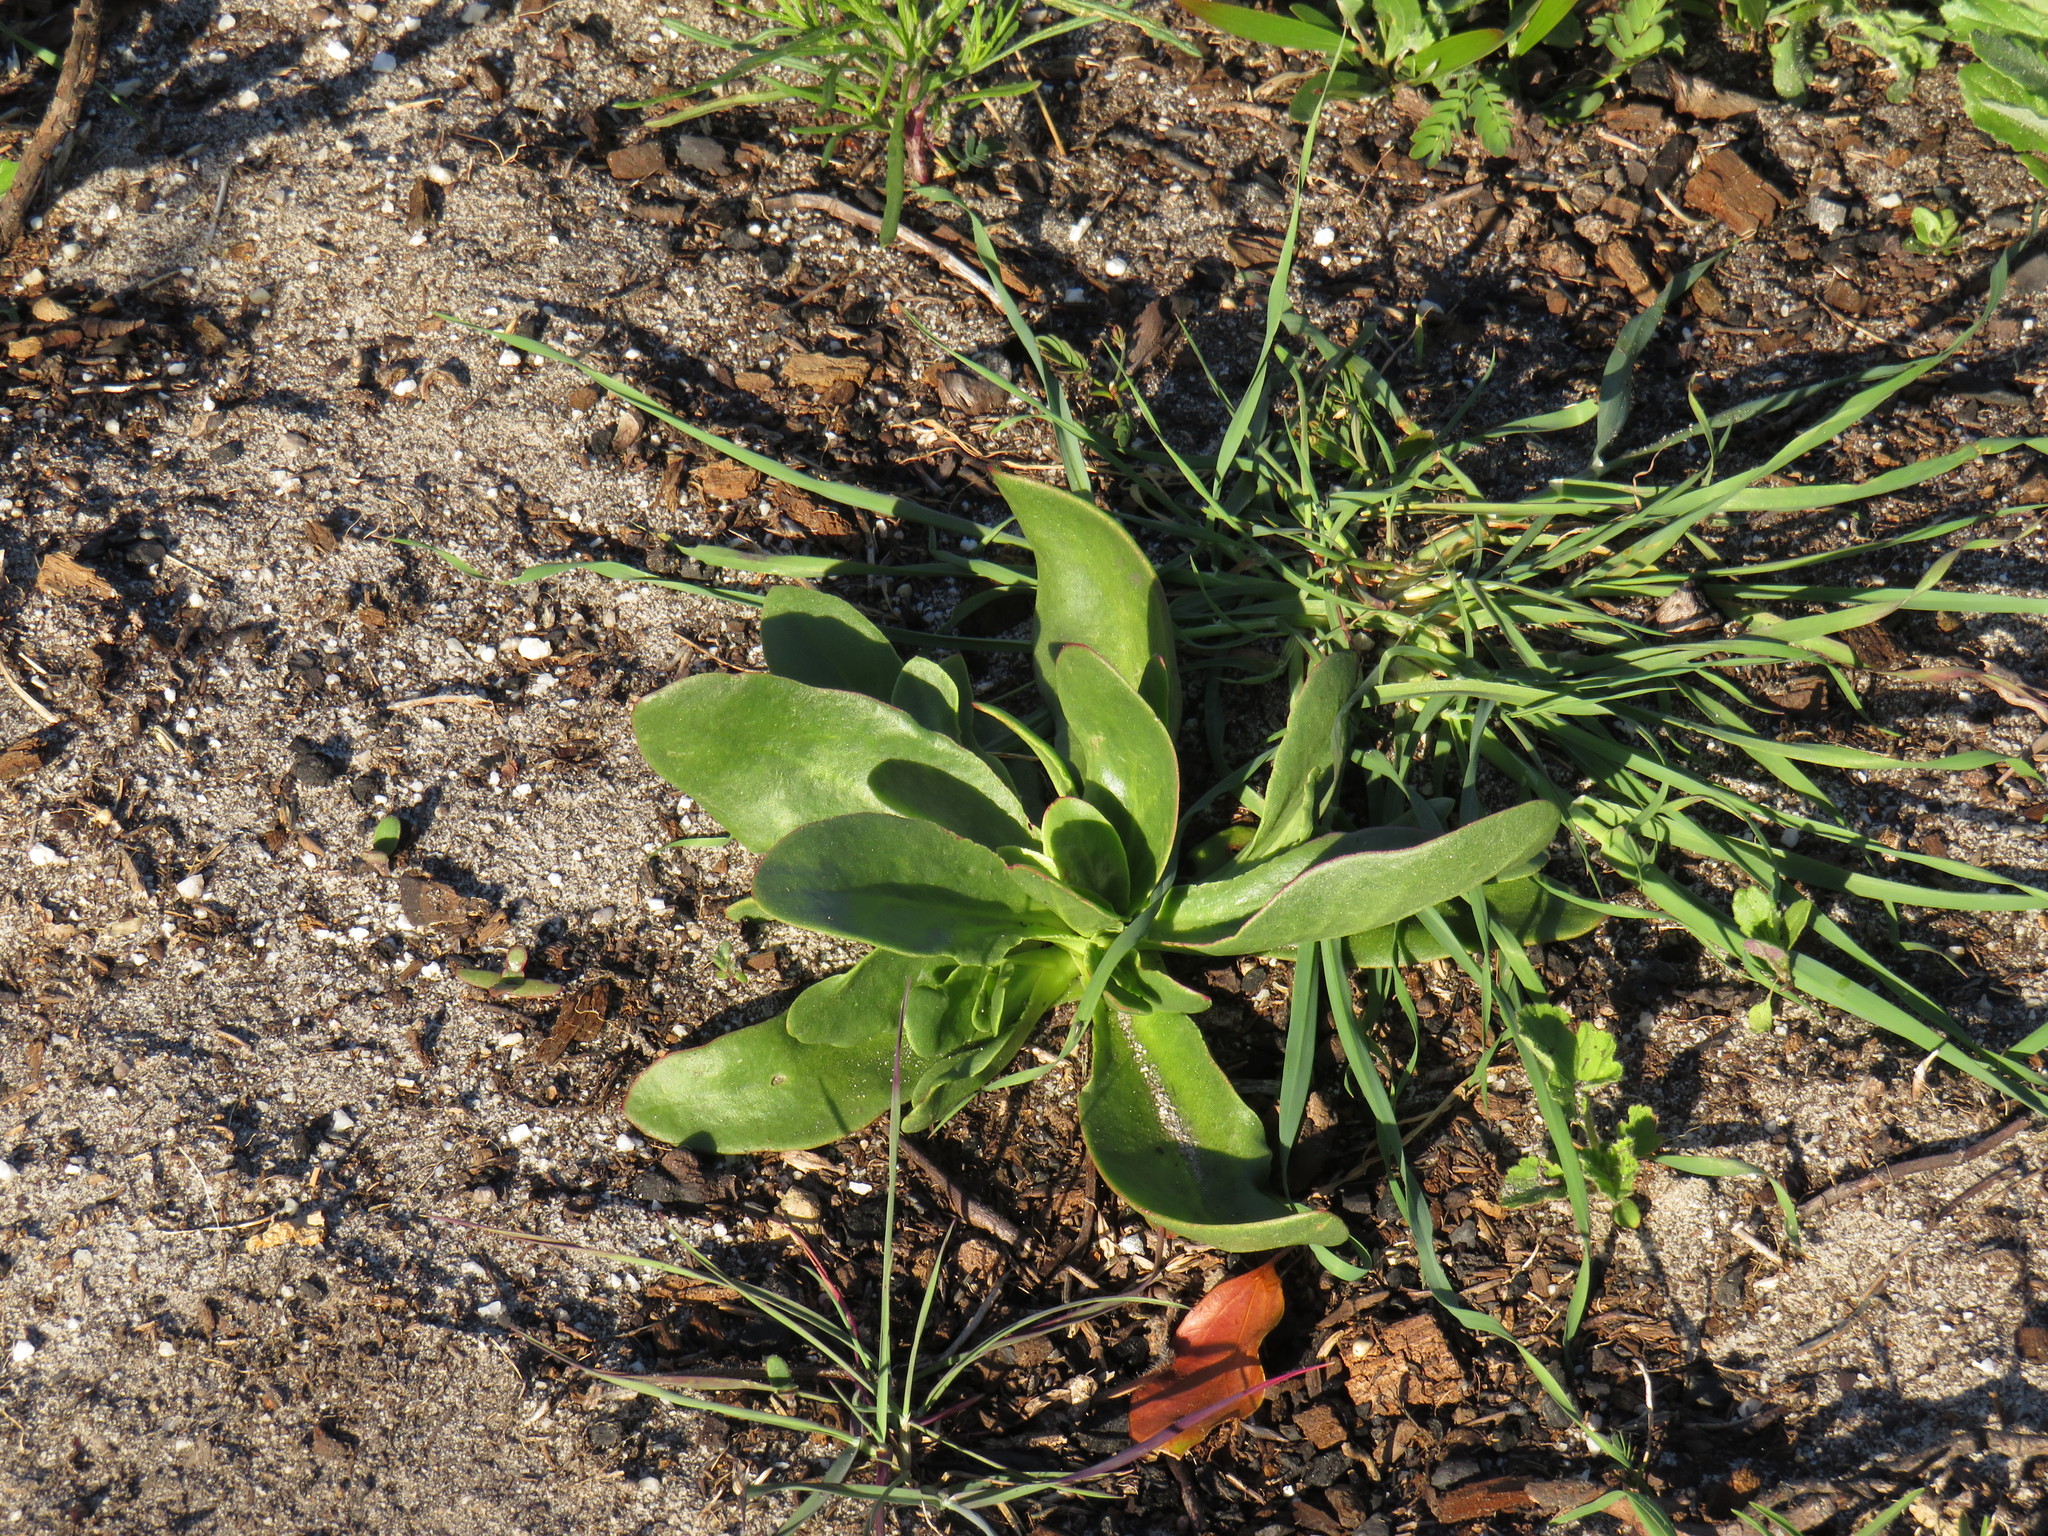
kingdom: Plantae
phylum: Tracheophyta
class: Magnoliopsida
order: Caryophyllales
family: Aizoaceae
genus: Skiatophytum
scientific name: Skiatophytum tripolium
